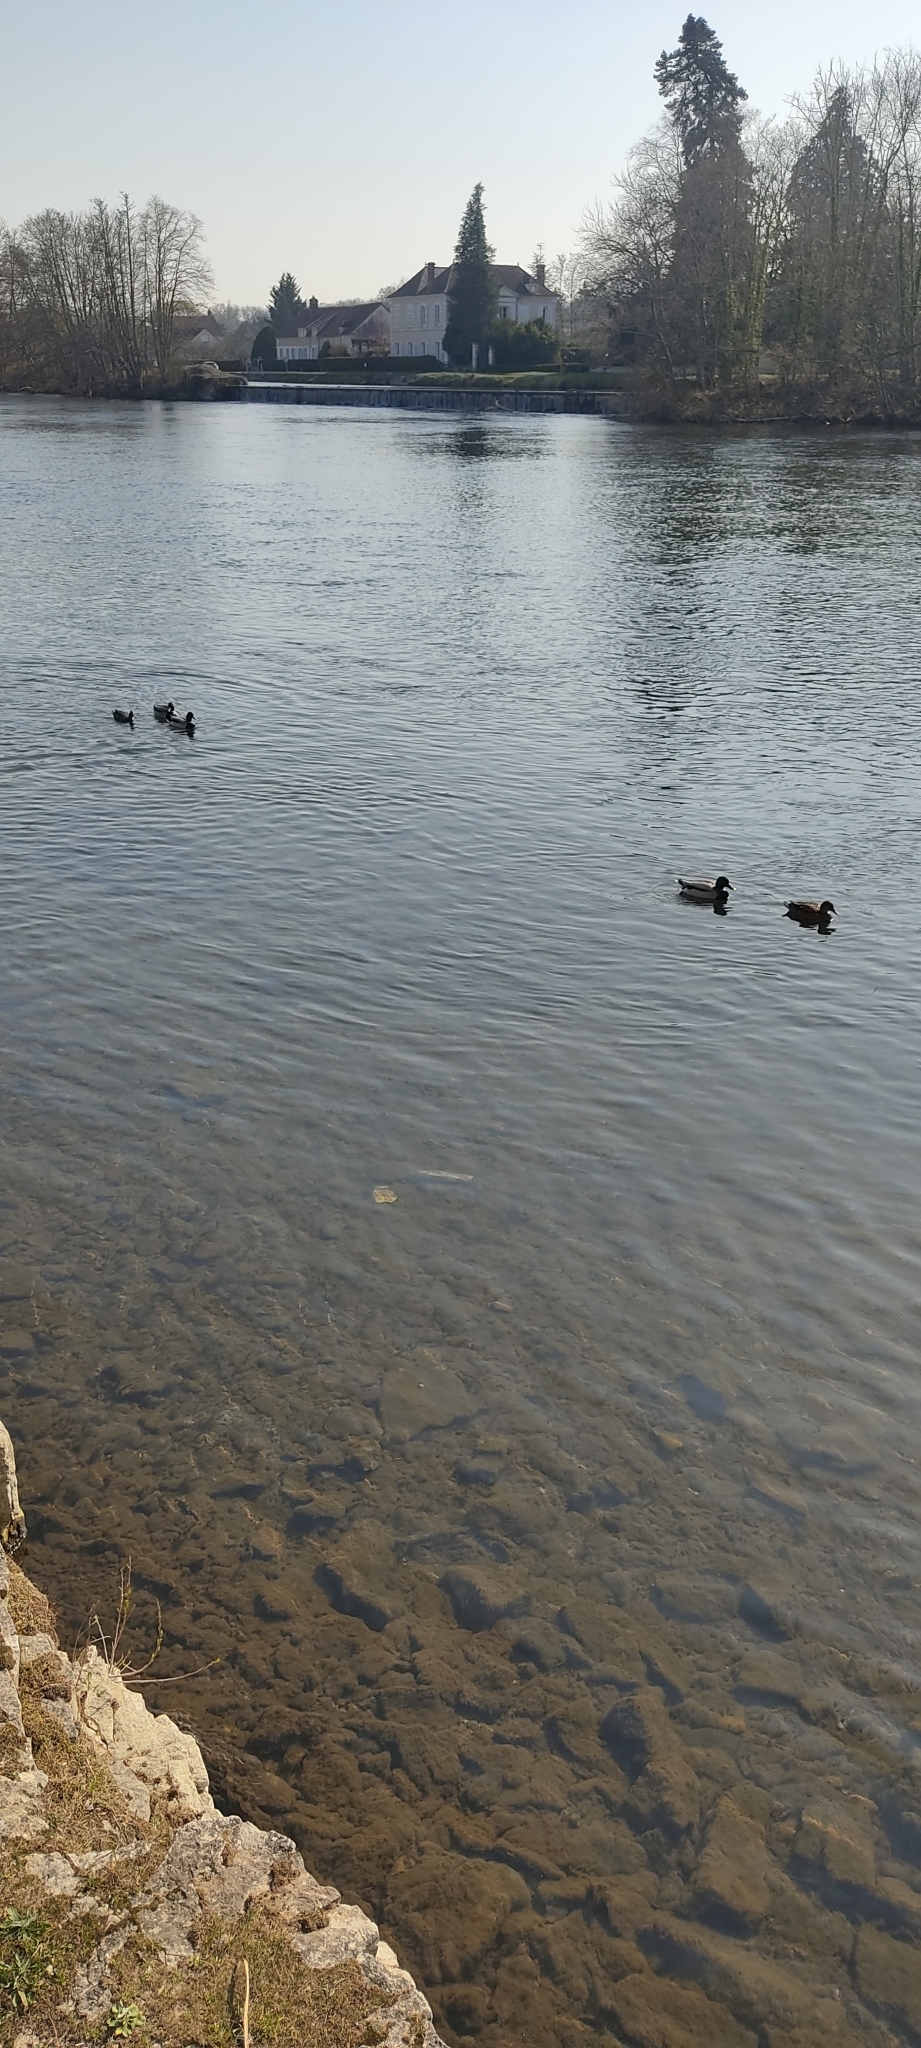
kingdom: Animalia
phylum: Chordata
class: Aves
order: Anseriformes
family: Anatidae
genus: Anas
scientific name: Anas platyrhynchos
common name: Mallard
